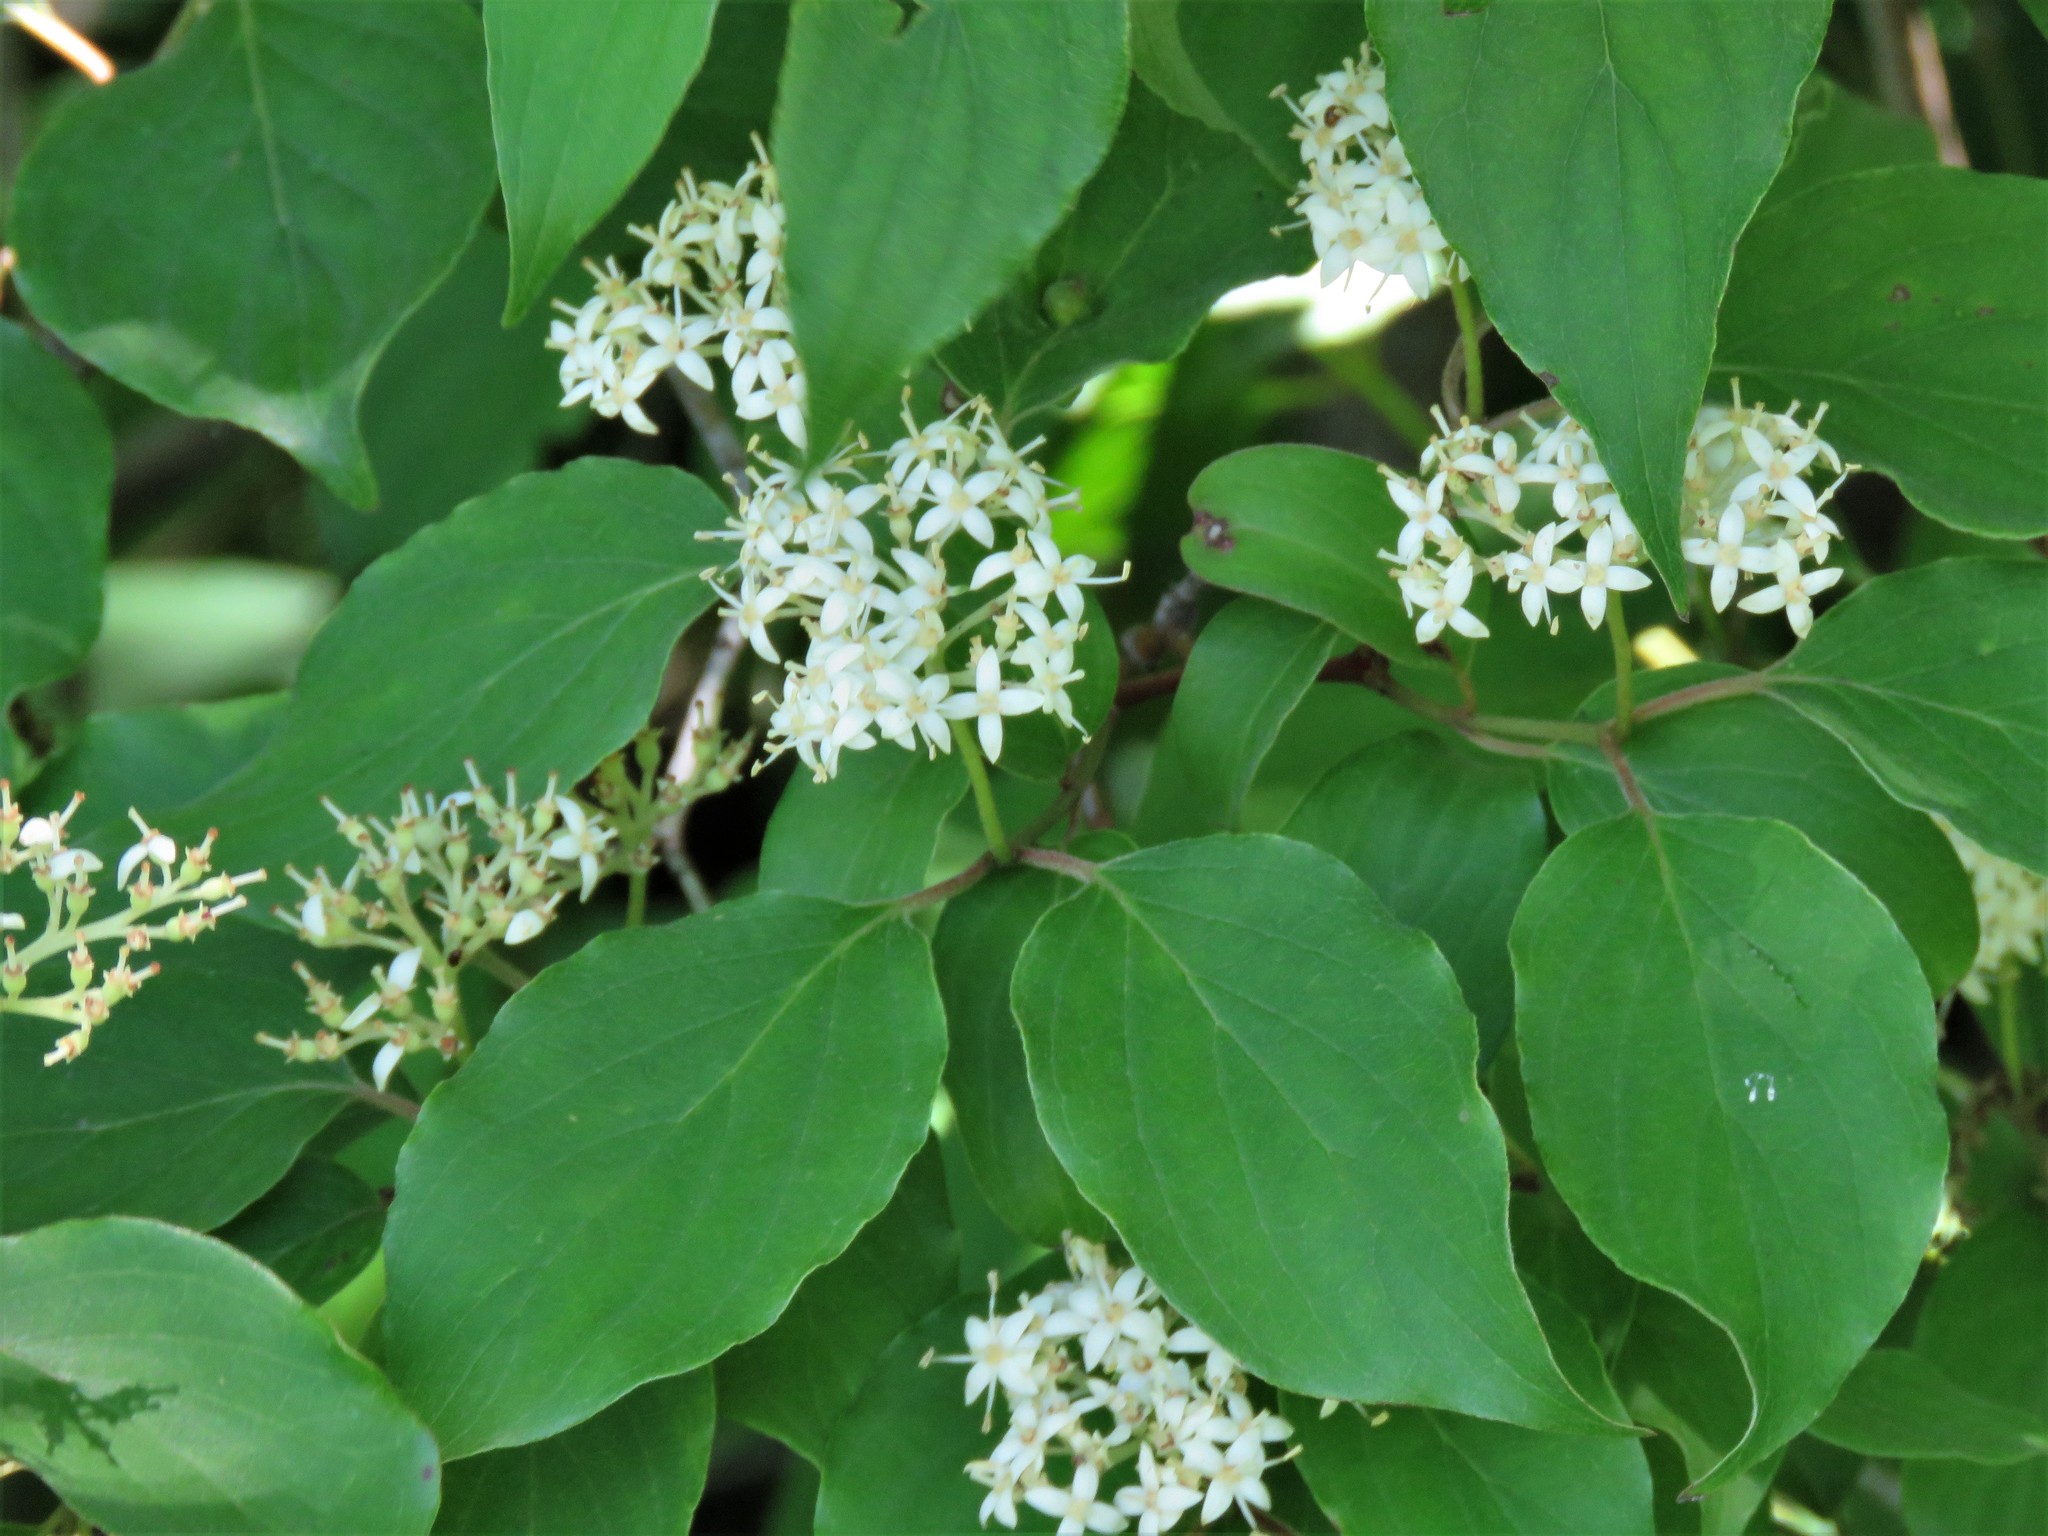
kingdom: Plantae
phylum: Tracheophyta
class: Magnoliopsida
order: Cornales
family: Cornaceae
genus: Cornus
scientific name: Cornus drummondii
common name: Rough-leaf dogwood
